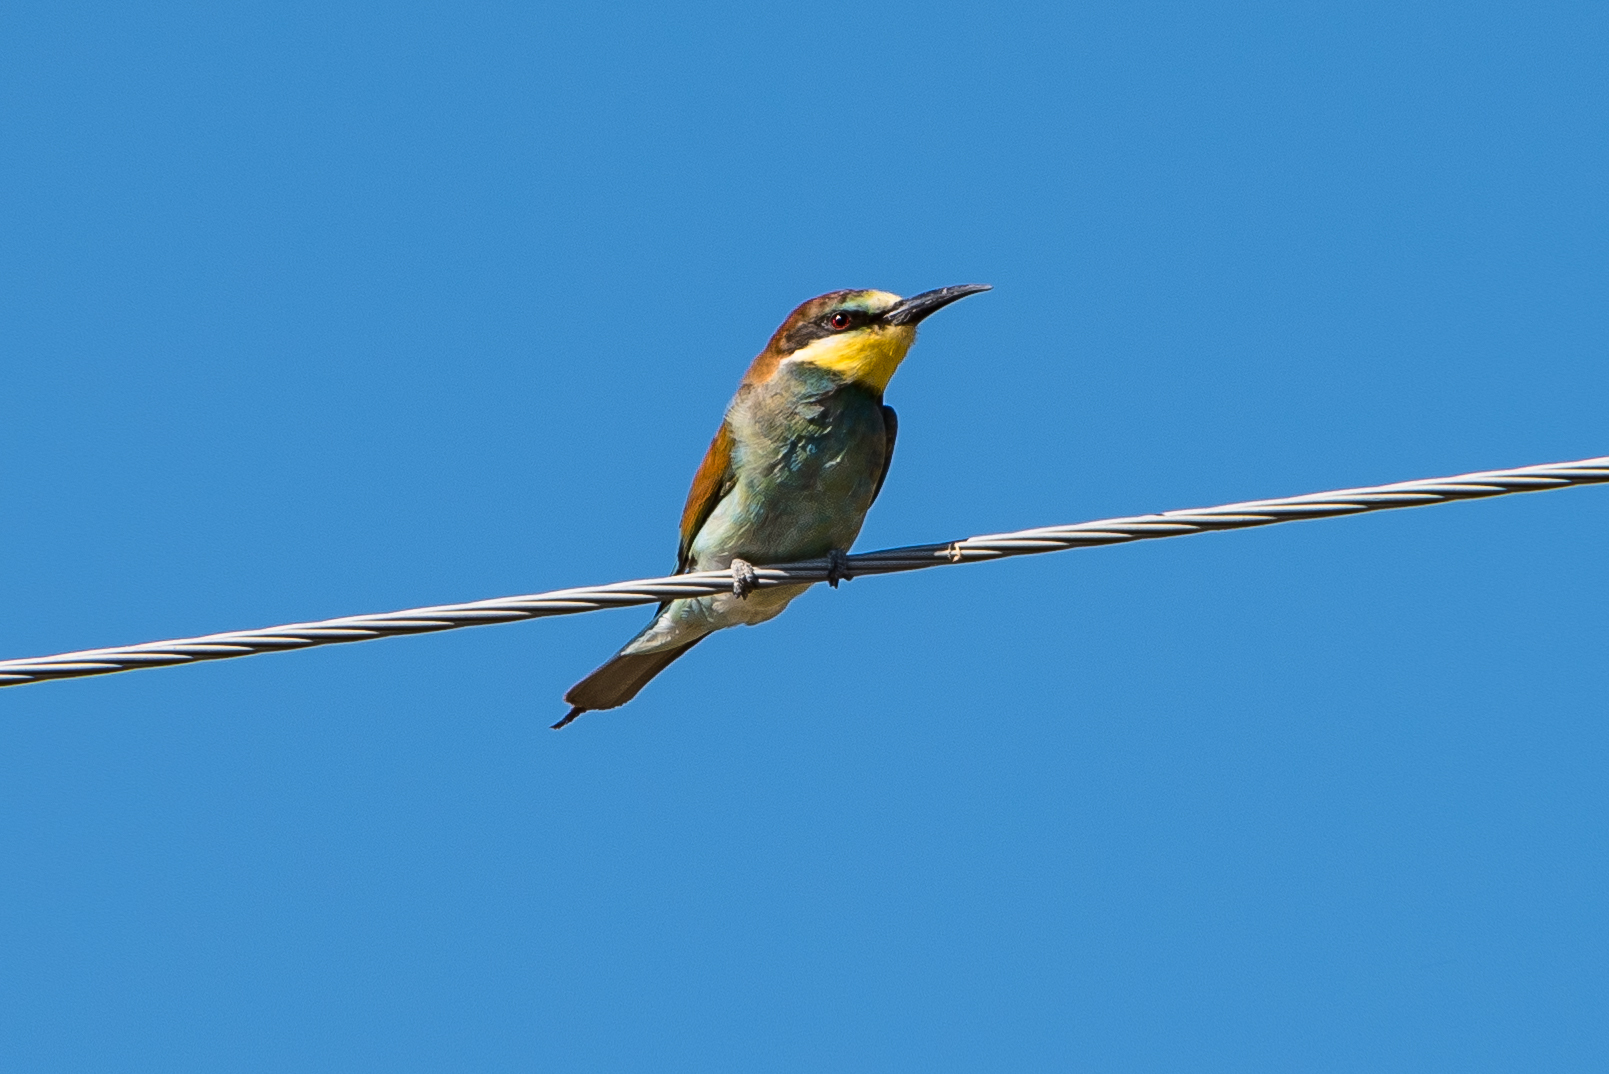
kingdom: Animalia
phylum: Chordata
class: Aves
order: Coraciiformes
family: Meropidae
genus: Merops
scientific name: Merops apiaster
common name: European bee-eater
